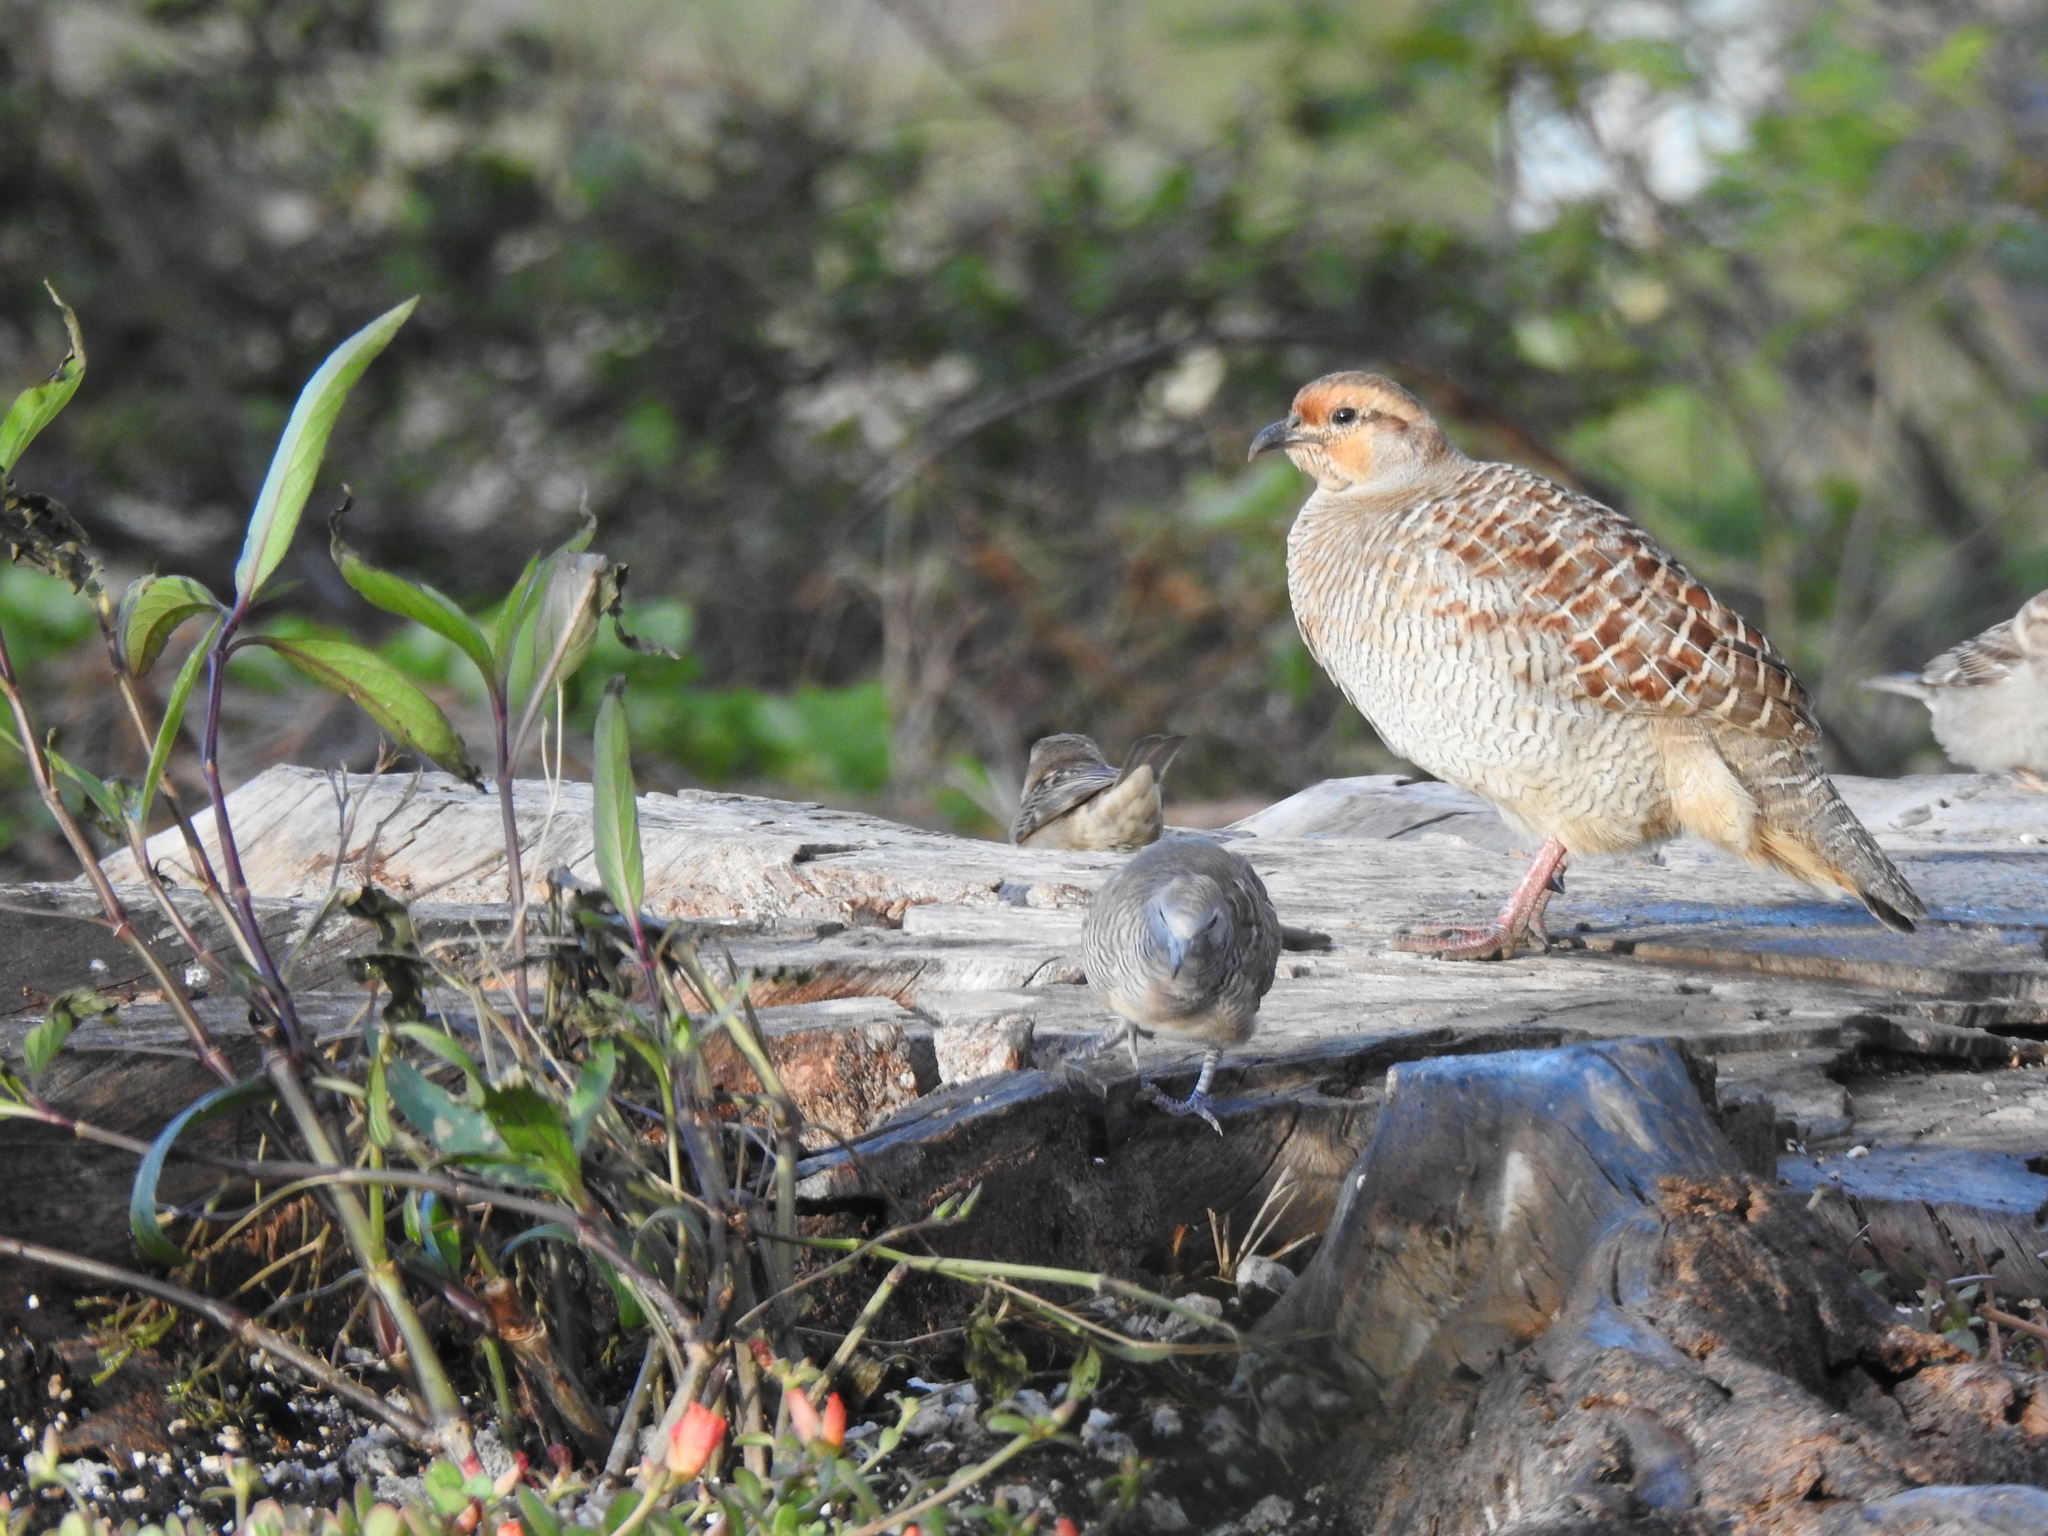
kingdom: Animalia
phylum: Chordata
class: Aves
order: Galliformes
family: Phasianidae
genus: Ortygornis
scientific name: Ortygornis pondicerianus
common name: Grey francolin
